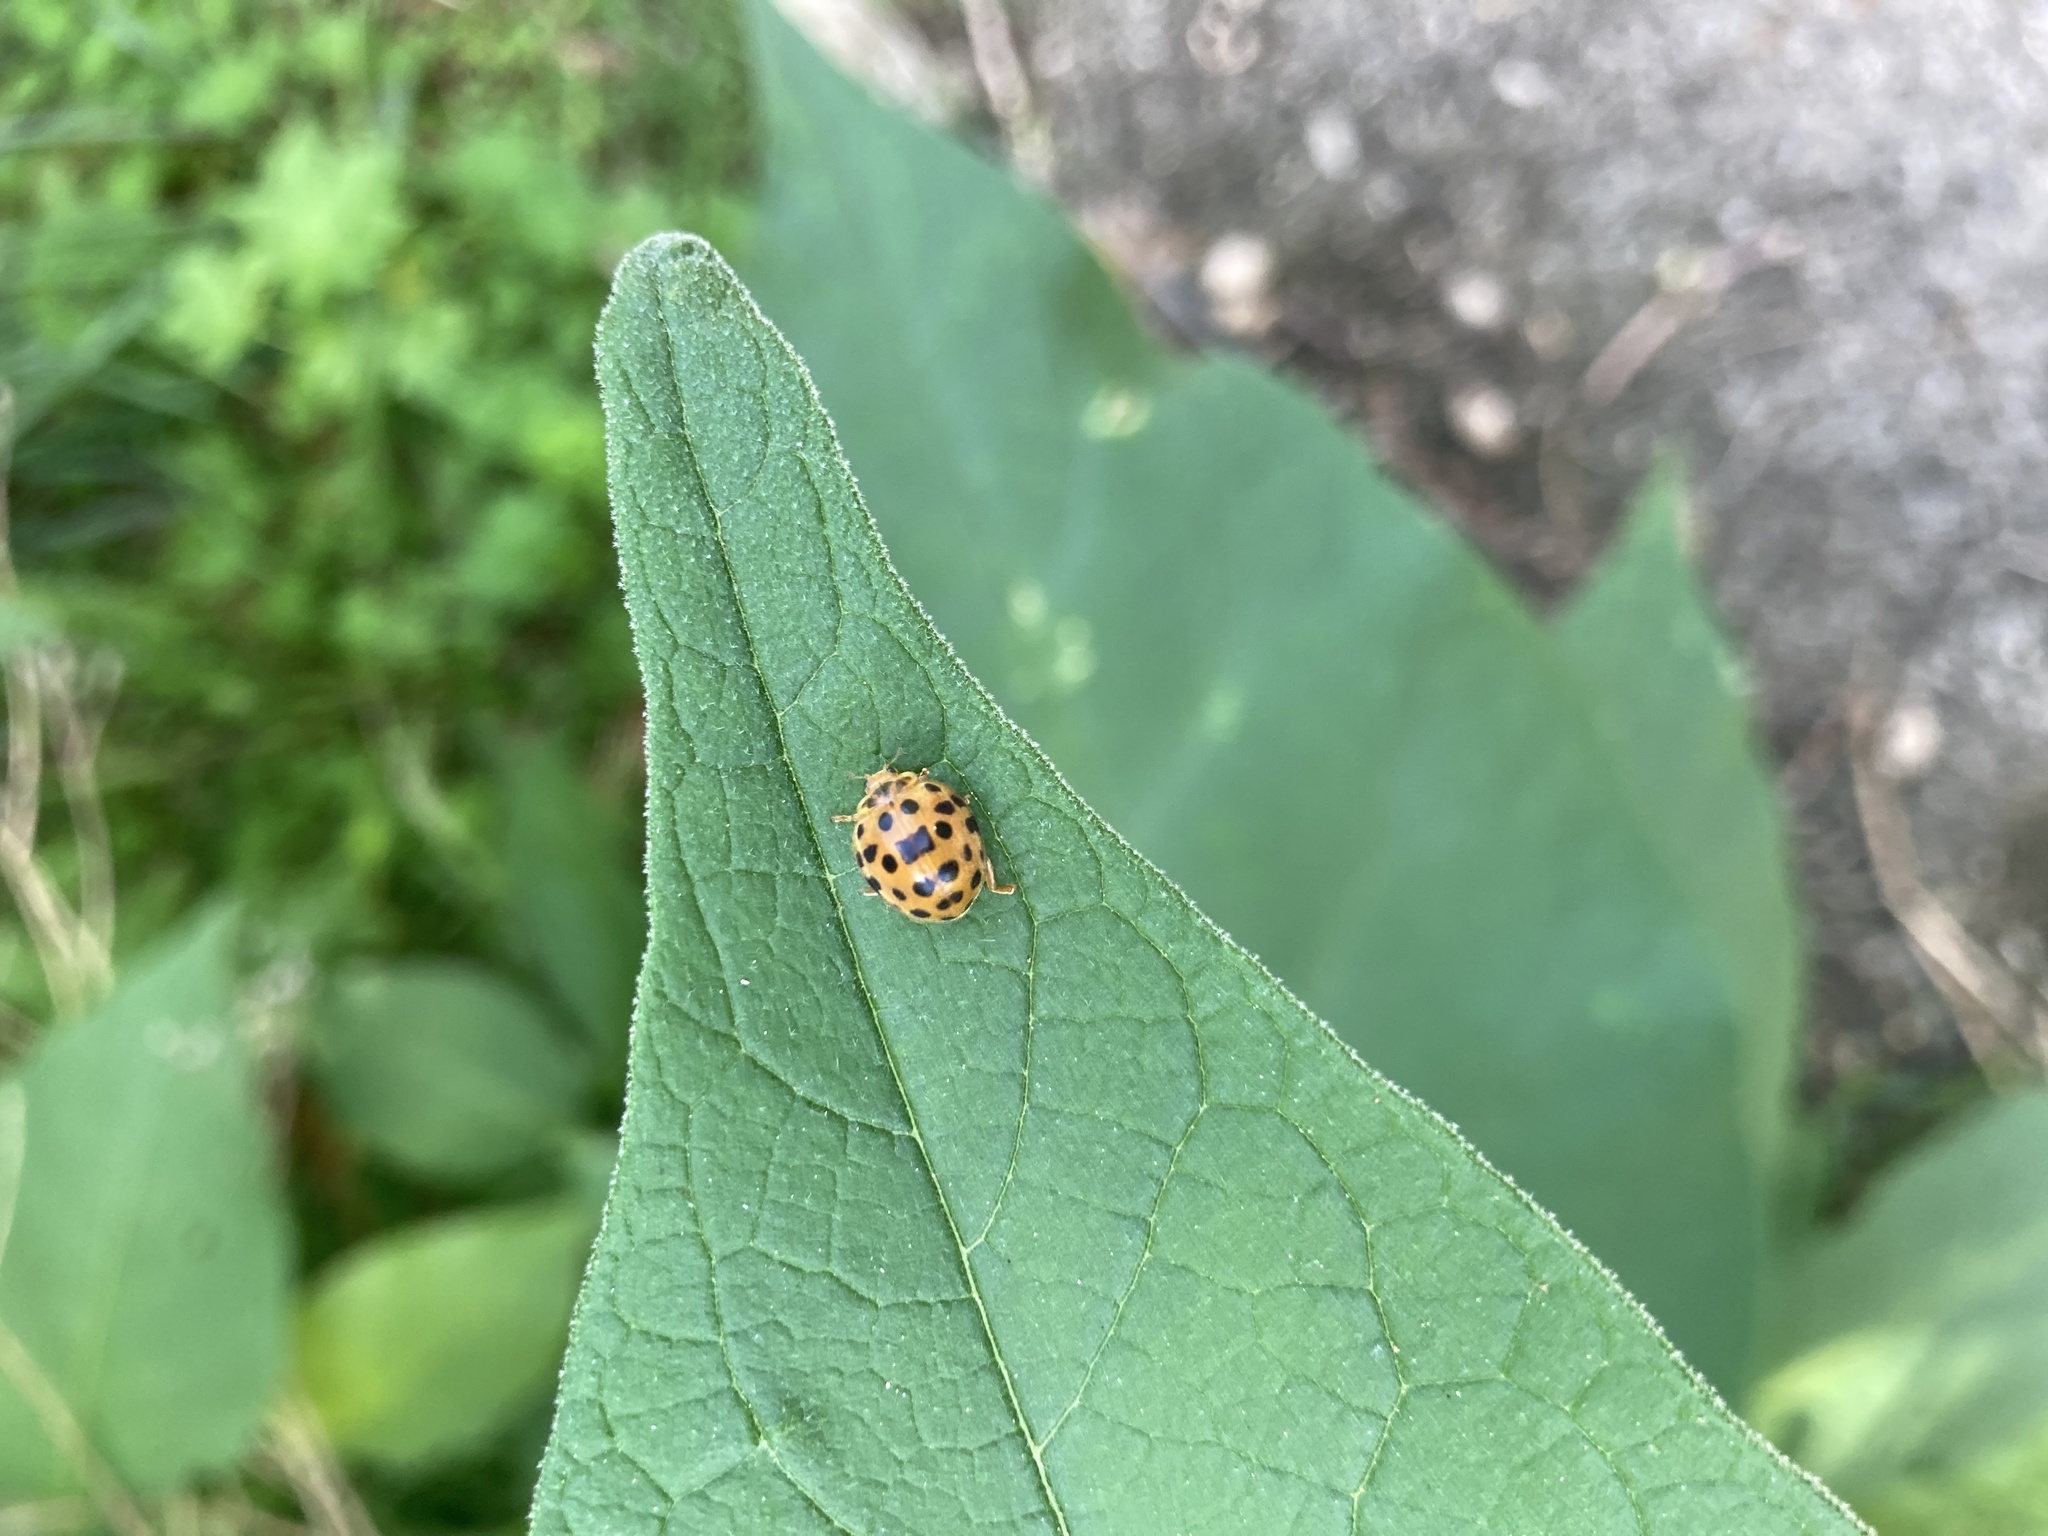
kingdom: Animalia
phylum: Arthropoda
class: Insecta
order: Coleoptera
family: Coccinellidae
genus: Henosepilachna
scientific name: Henosepilachna vigintioctopunctata
